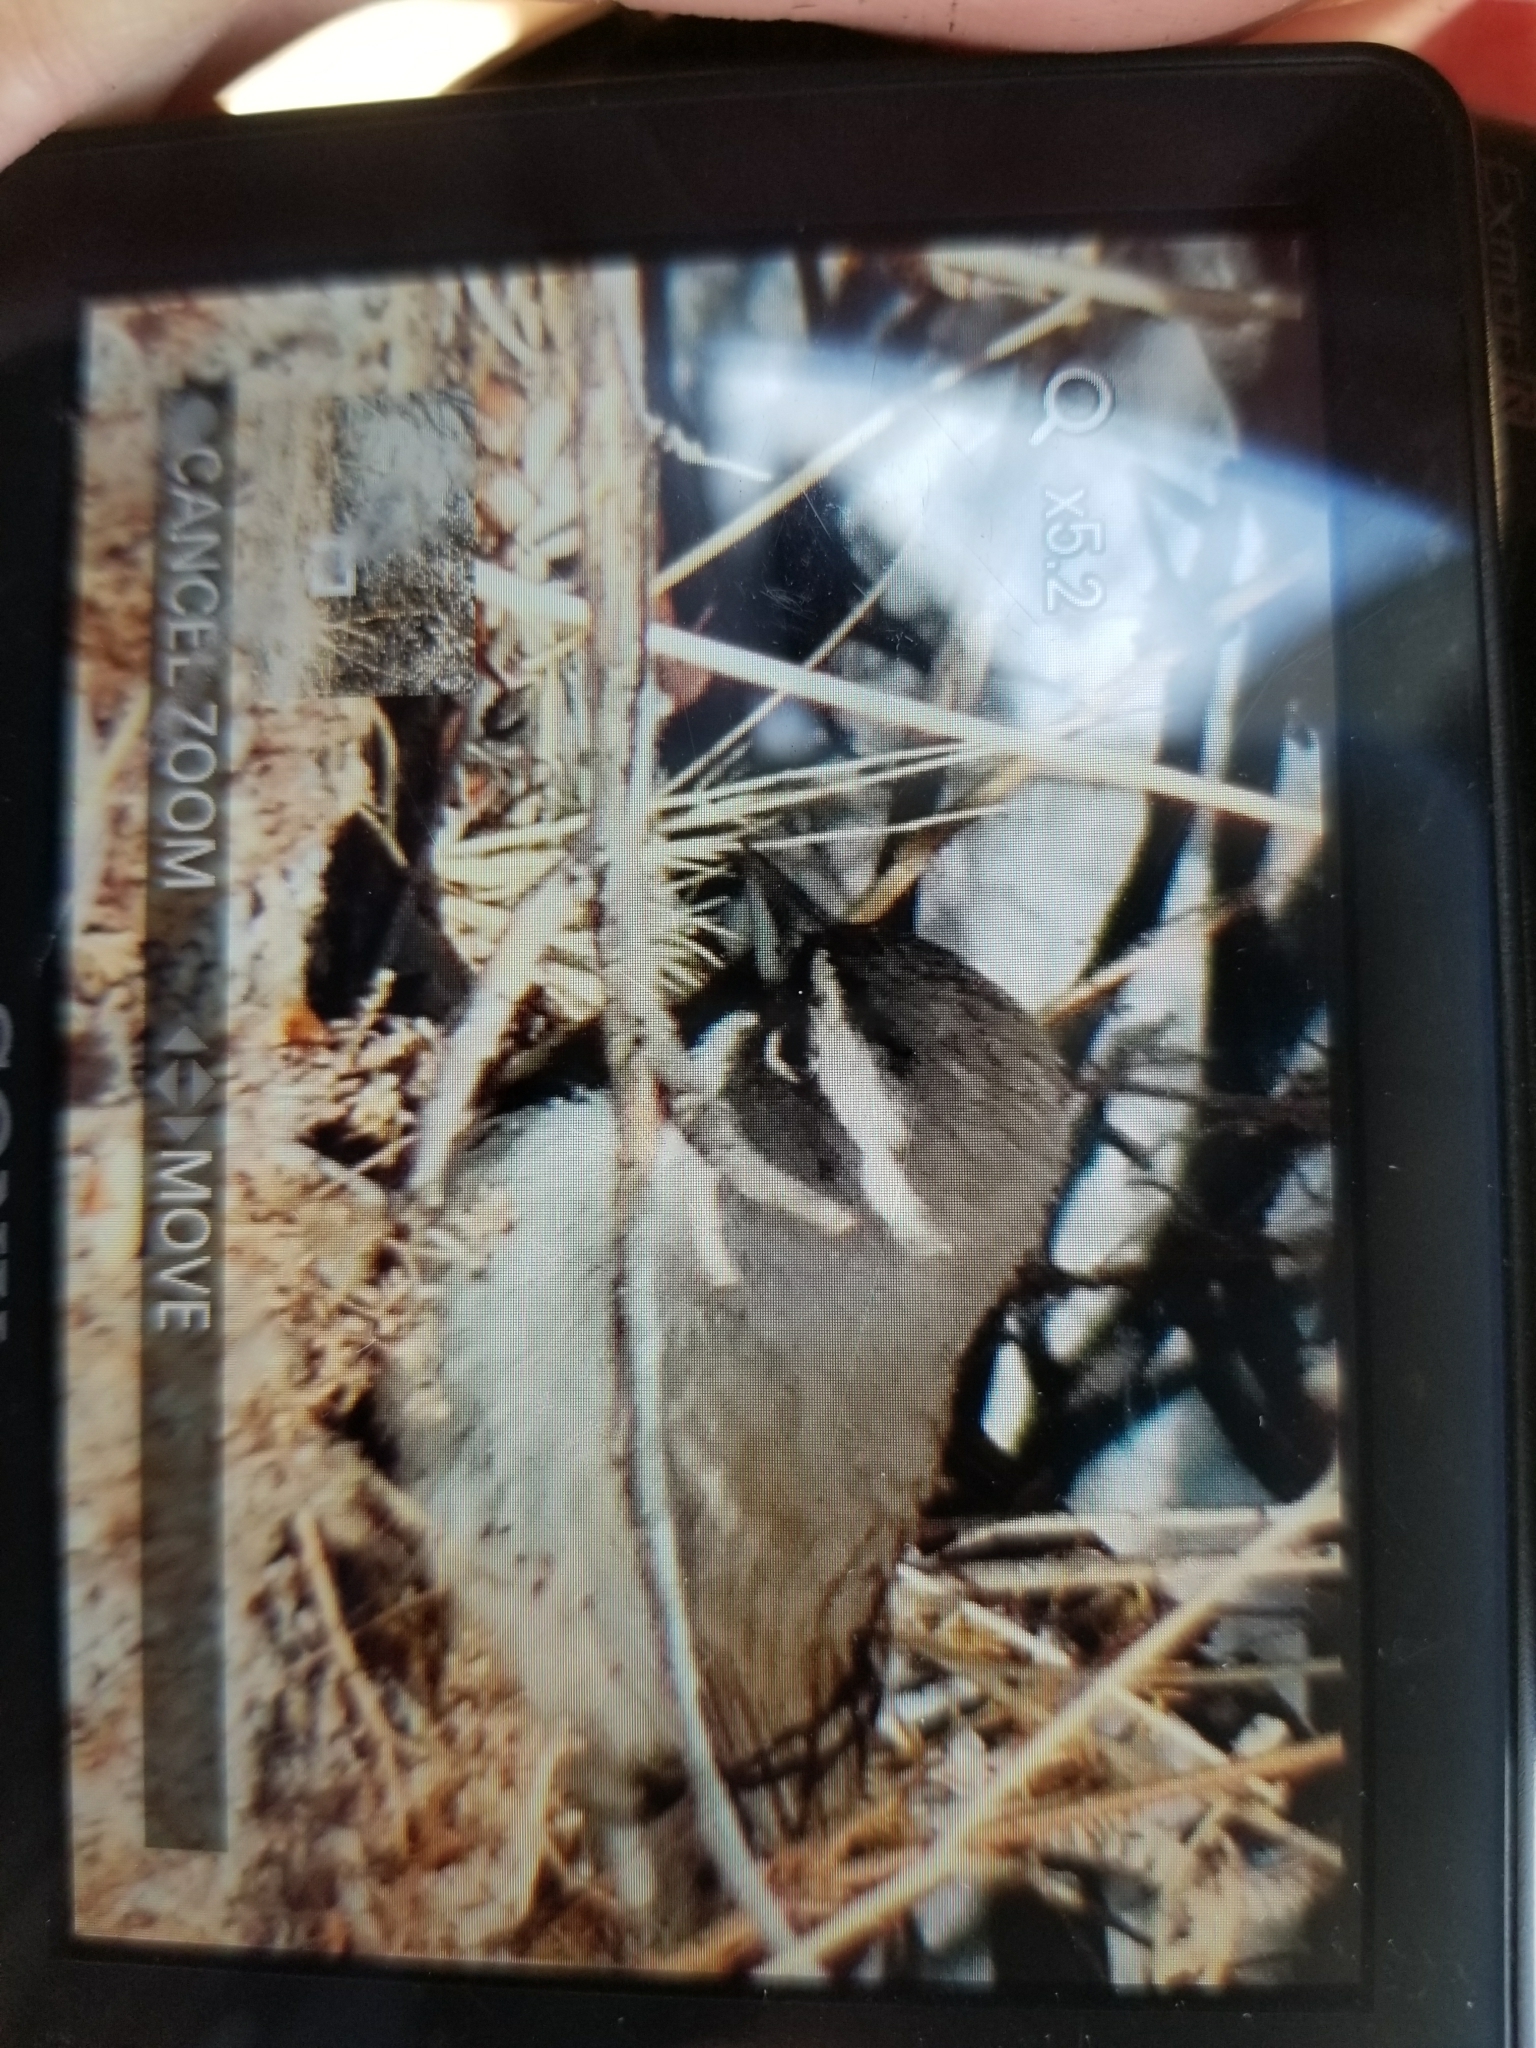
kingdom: Animalia
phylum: Chordata
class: Aves
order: Passeriformes
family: Passerellidae
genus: Amphispiza
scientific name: Amphispiza bilineata
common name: Black-throated sparrow
